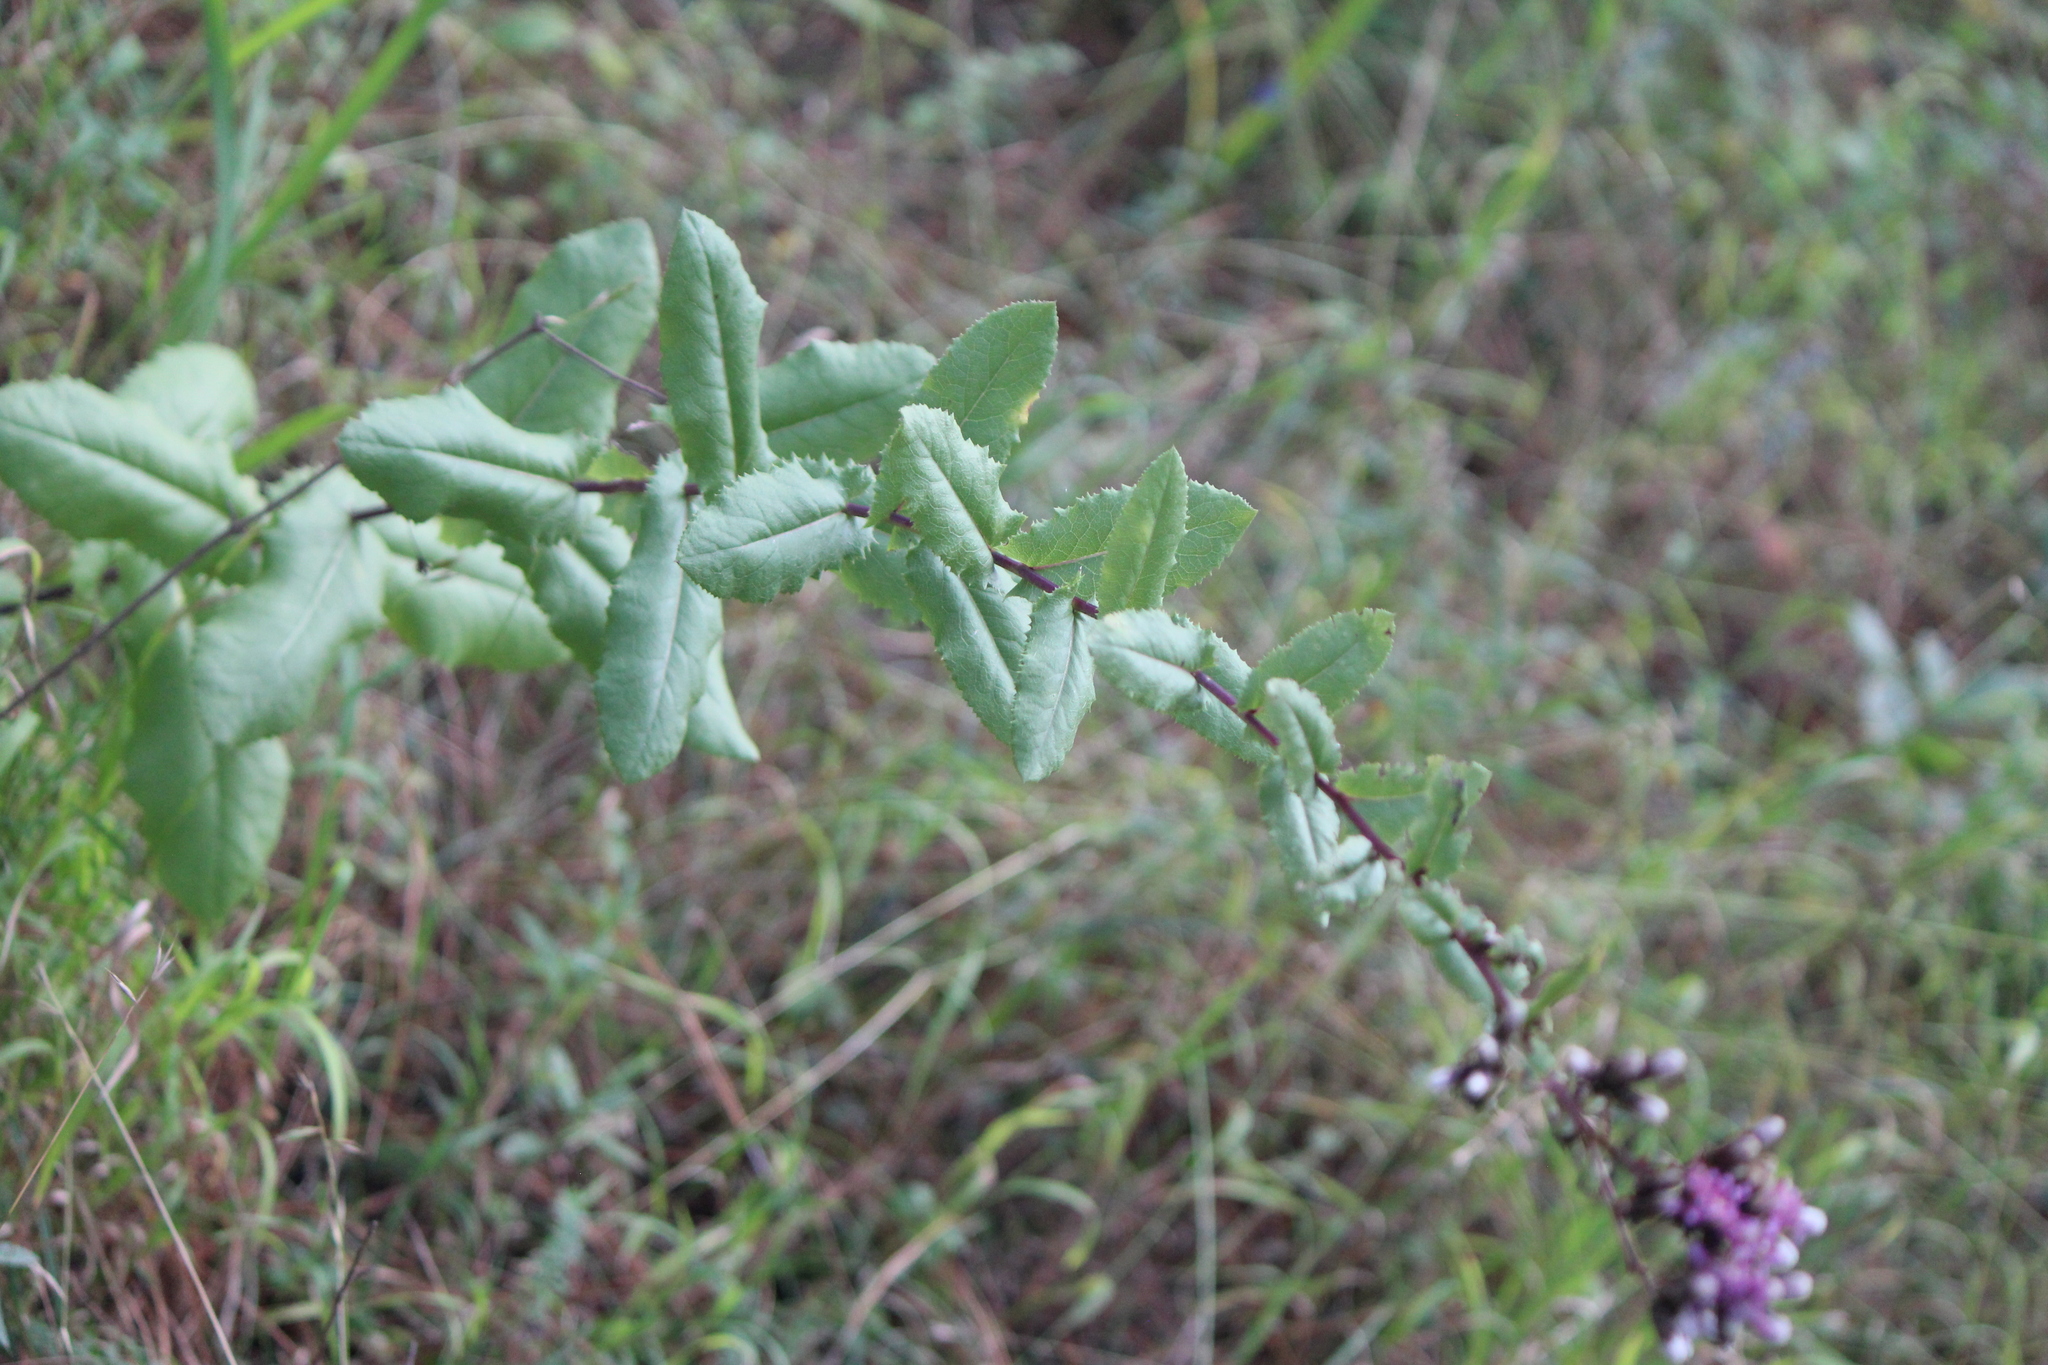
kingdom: Plantae
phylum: Tracheophyta
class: Magnoliopsida
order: Asterales
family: Asteraceae
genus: Acourtia
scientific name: Acourtia hidalgoana
